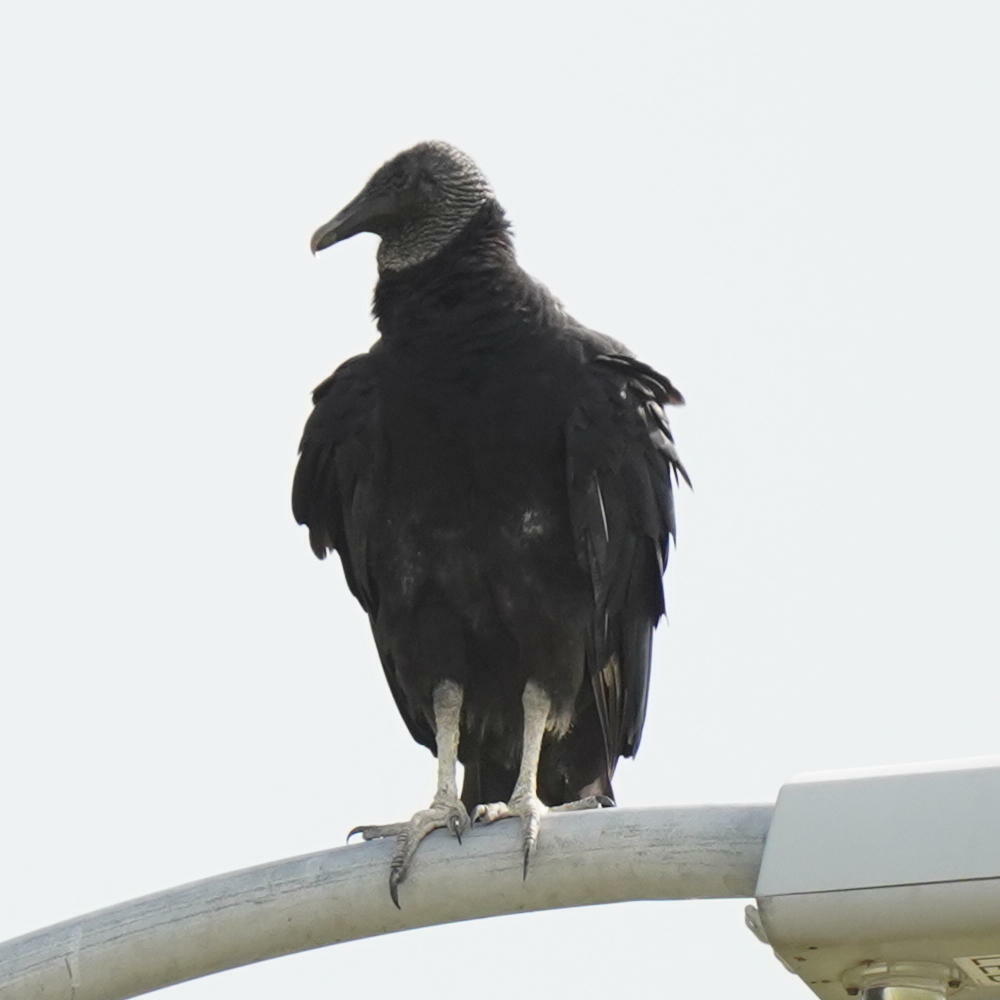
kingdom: Animalia
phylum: Chordata
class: Aves
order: Accipitriformes
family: Cathartidae
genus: Coragyps
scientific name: Coragyps atratus
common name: Black vulture
